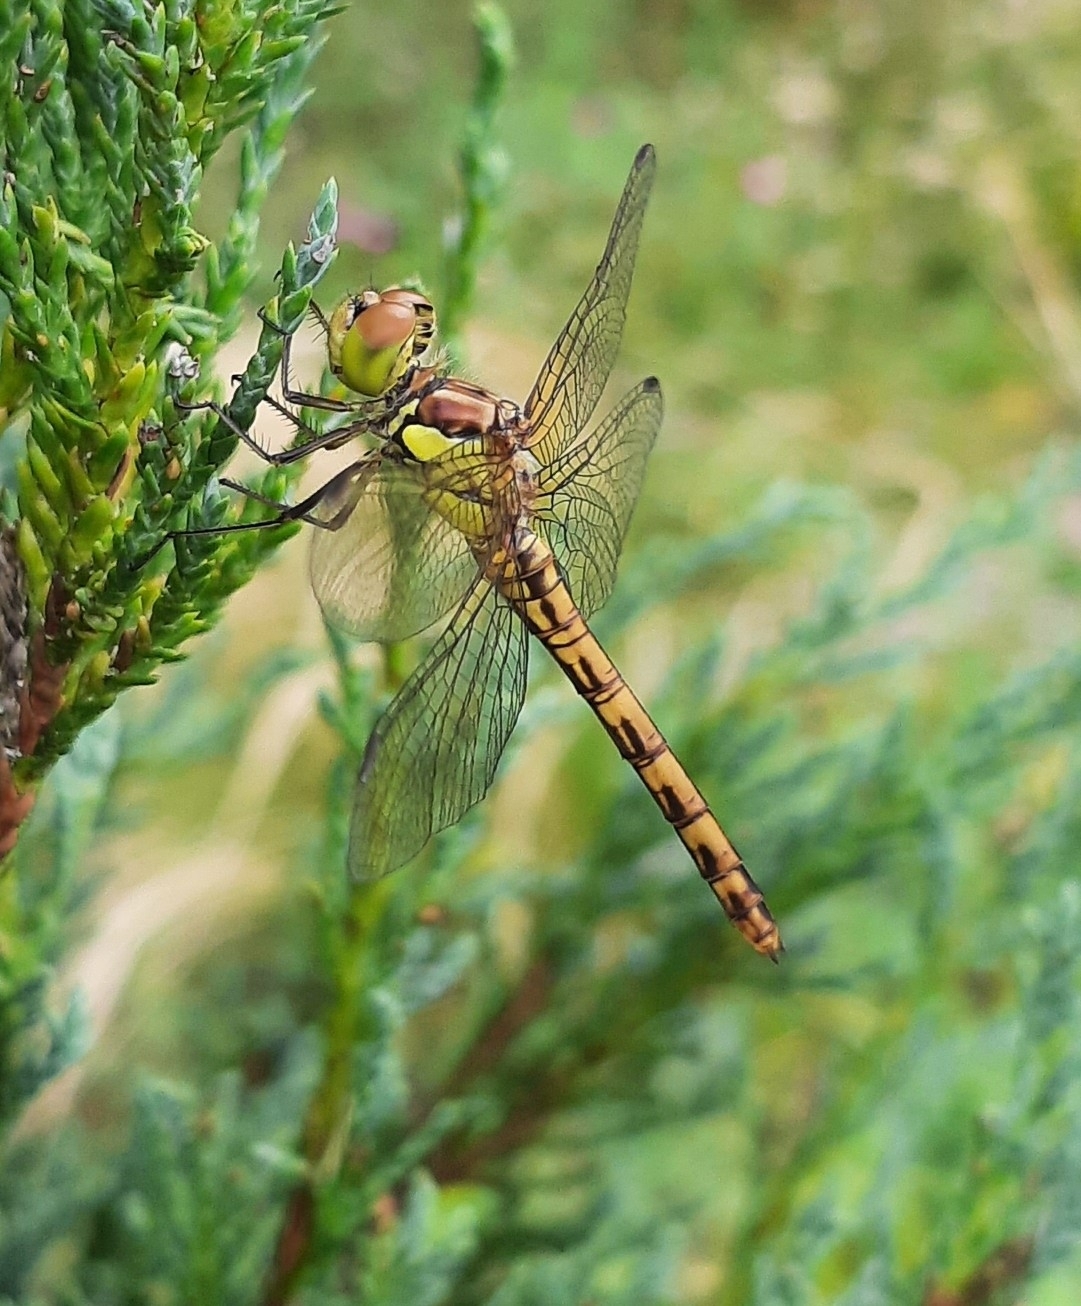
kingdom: Animalia
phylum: Arthropoda
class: Insecta
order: Odonata
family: Libellulidae
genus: Sympetrum
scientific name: Sympetrum striolatum
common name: Common darter
